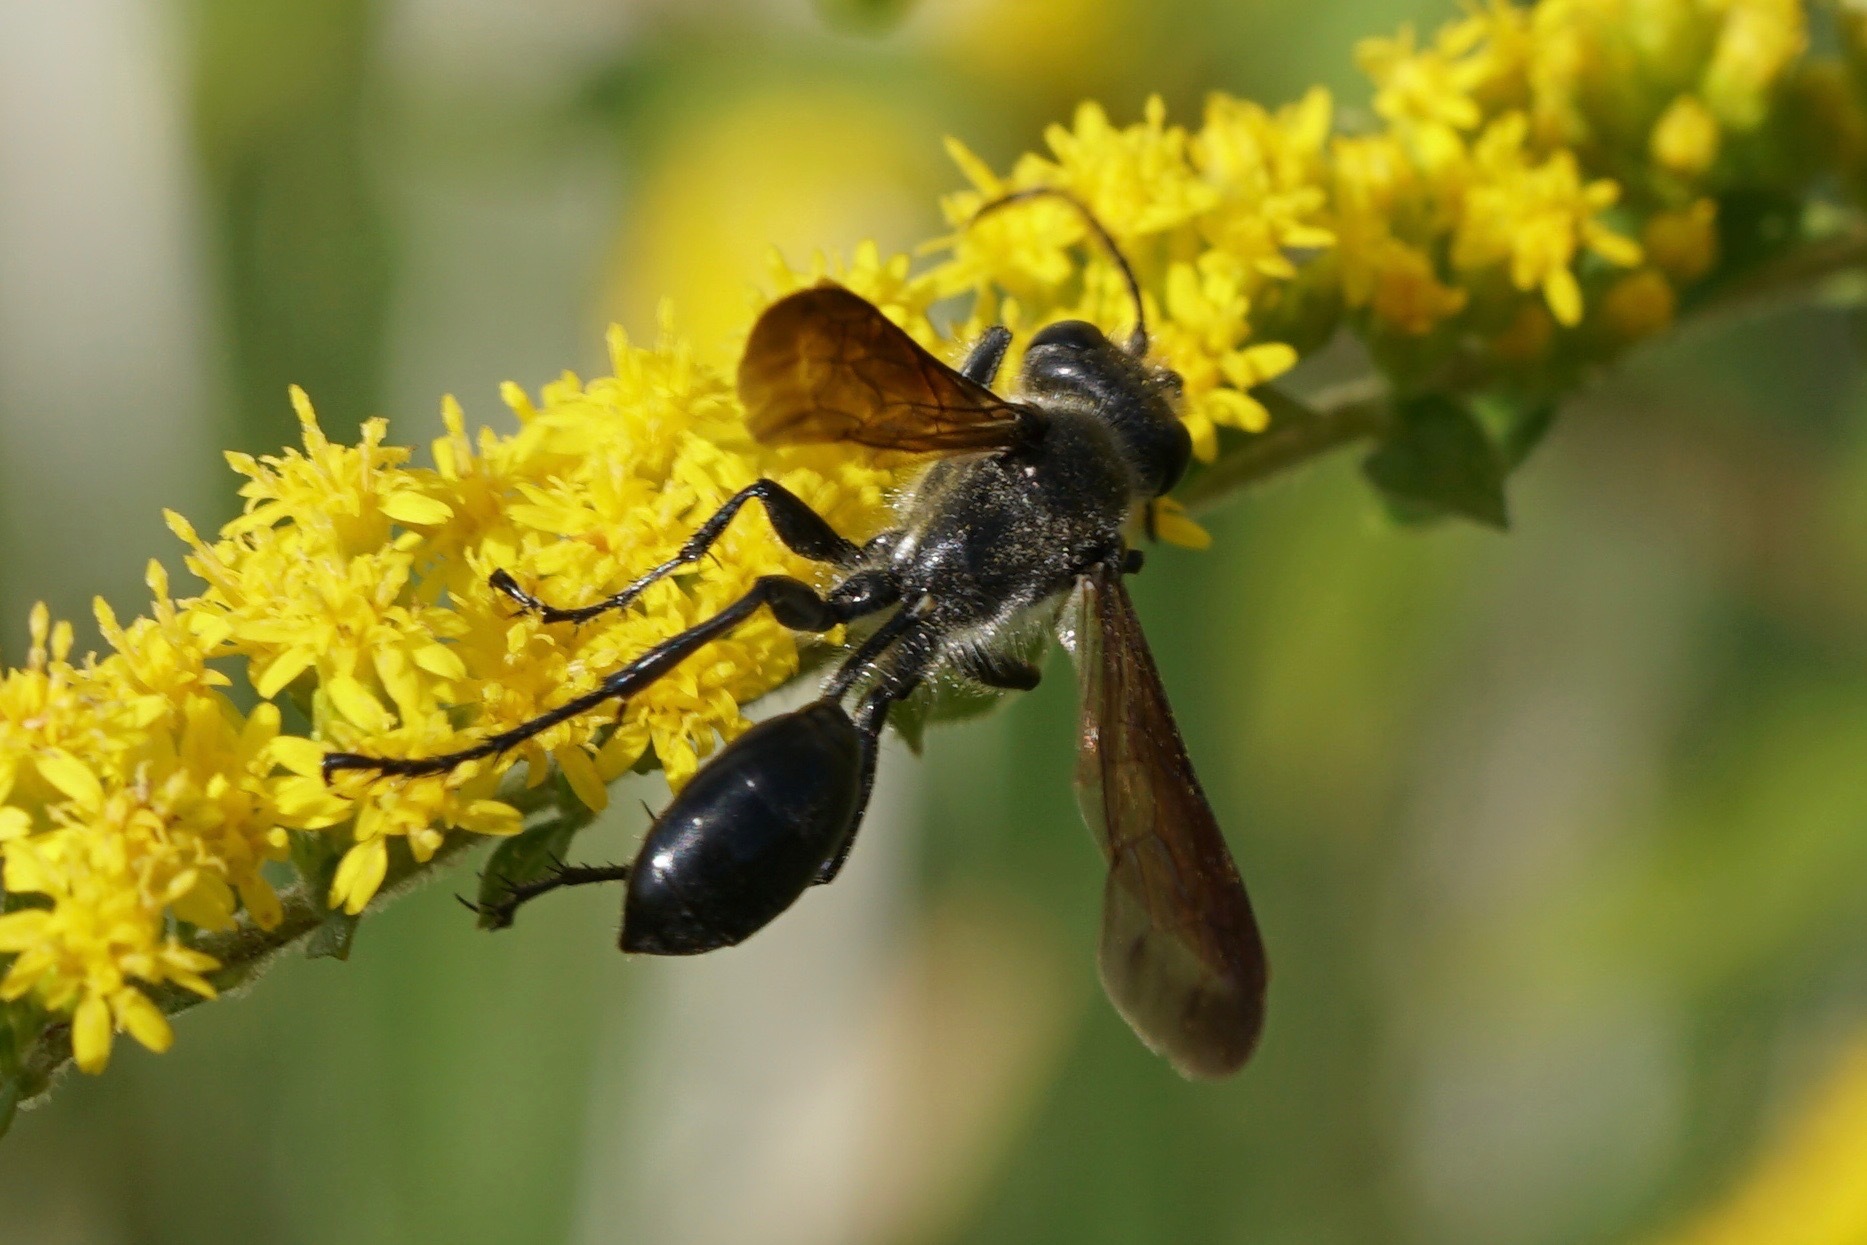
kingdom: Animalia
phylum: Arthropoda
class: Insecta
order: Hymenoptera
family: Sphecidae
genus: Isodontia
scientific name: Isodontia
